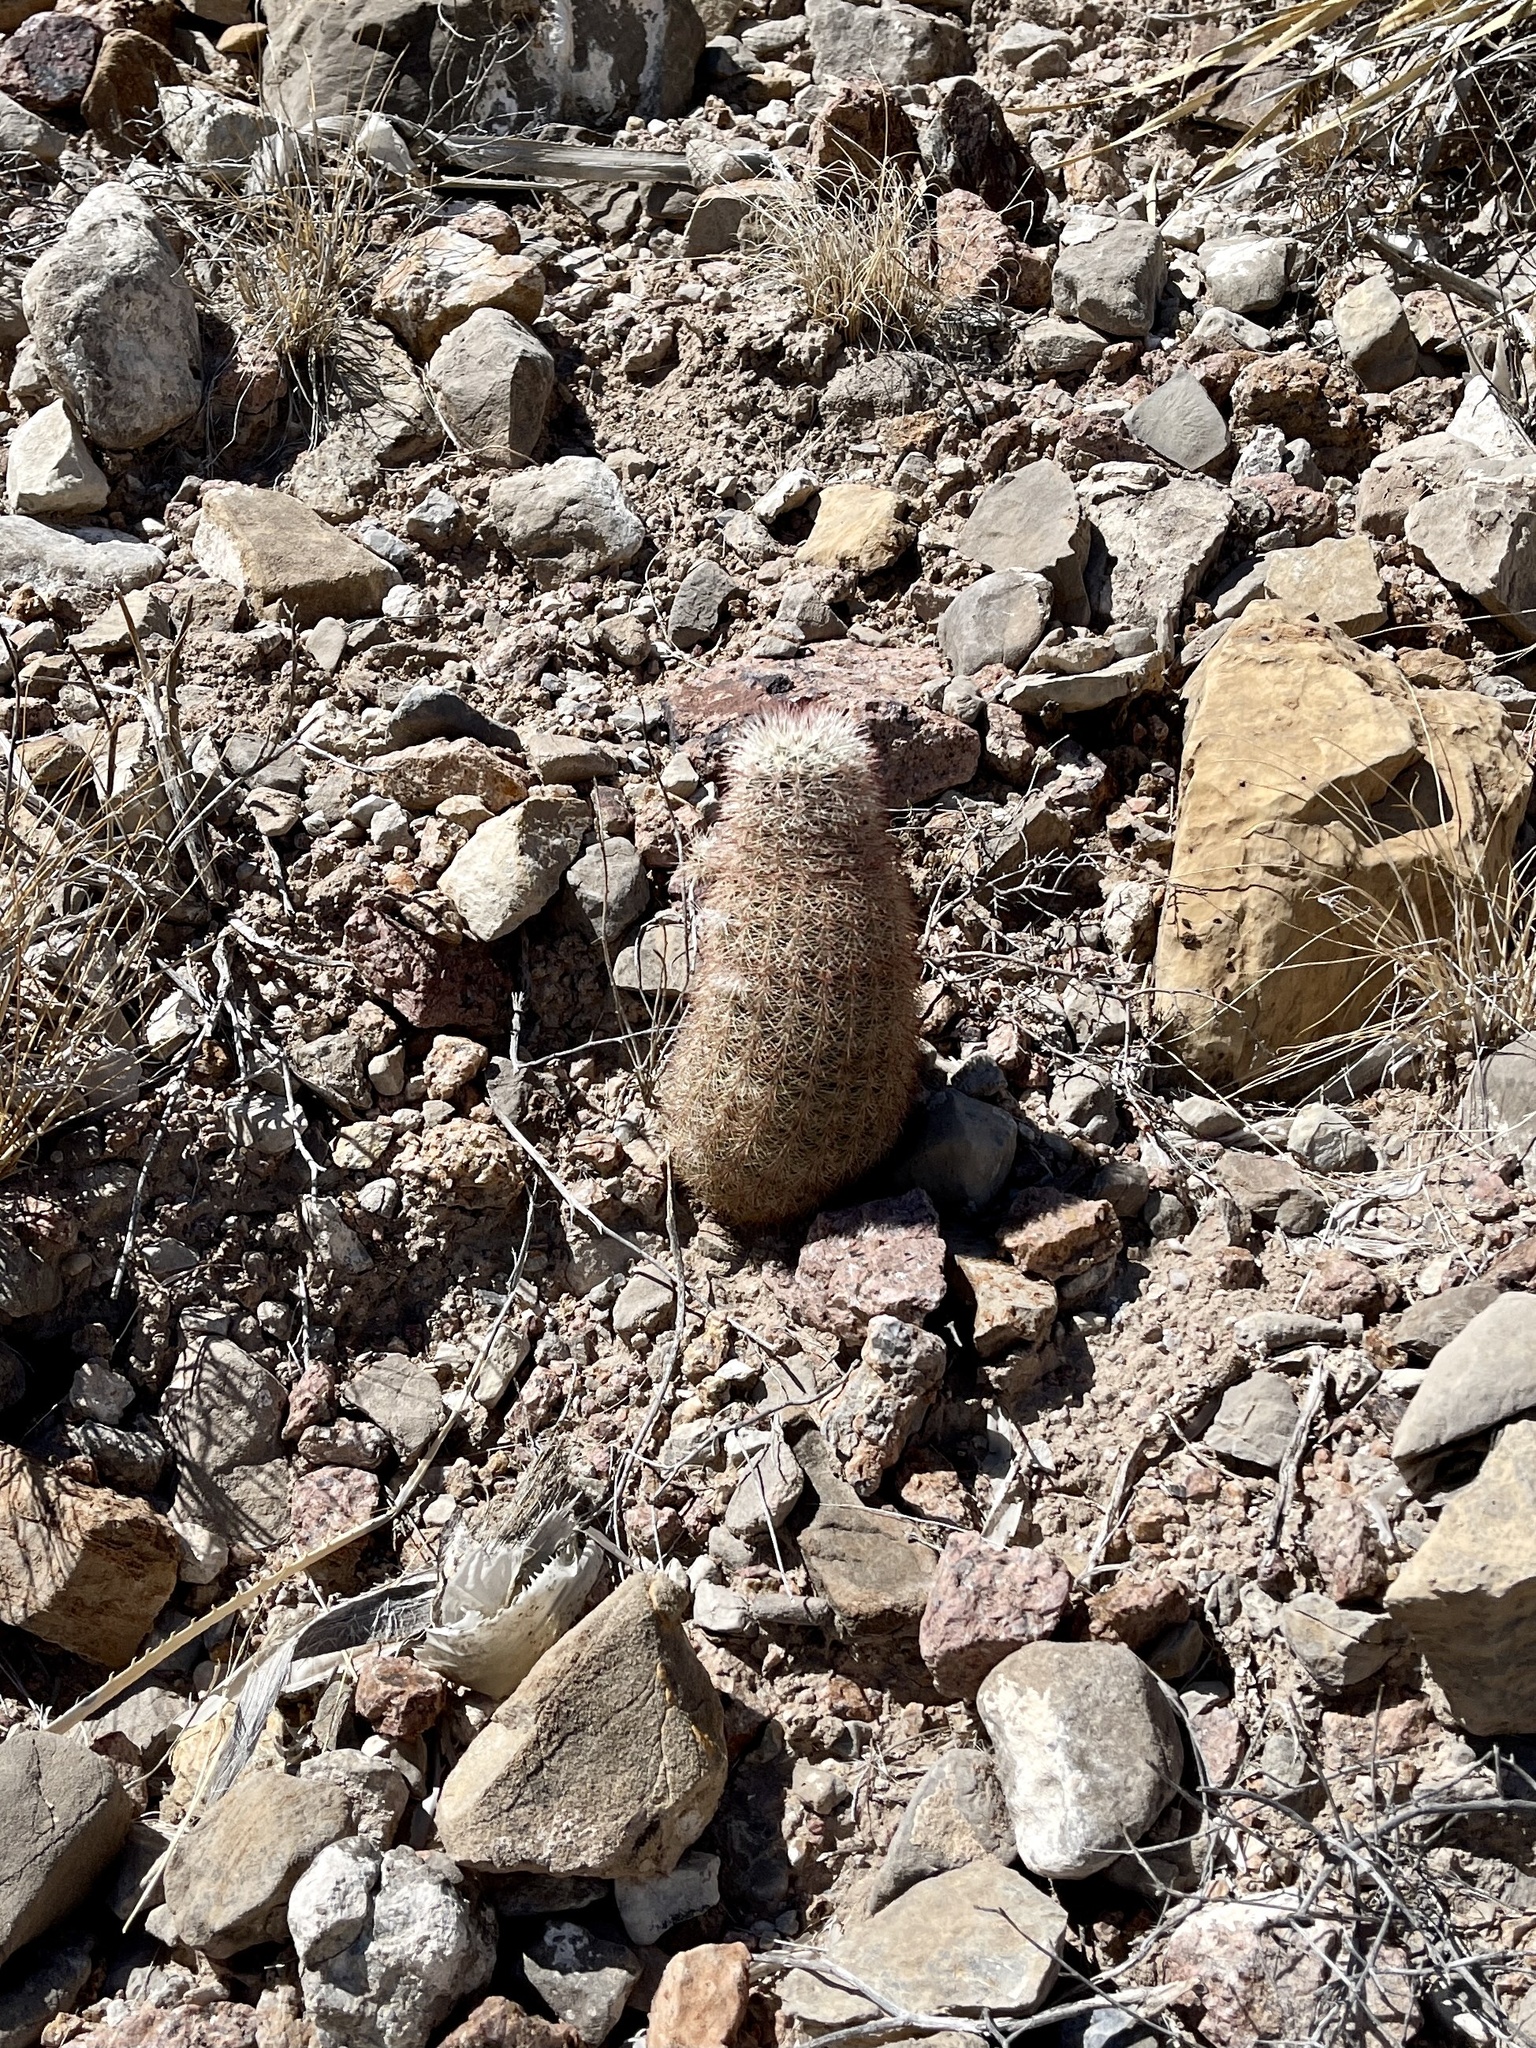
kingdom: Plantae
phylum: Tracheophyta
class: Magnoliopsida
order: Caryophyllales
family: Cactaceae
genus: Echinocereus
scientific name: Echinocereus dasyacanthus
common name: Spiny hedgehog cactus
